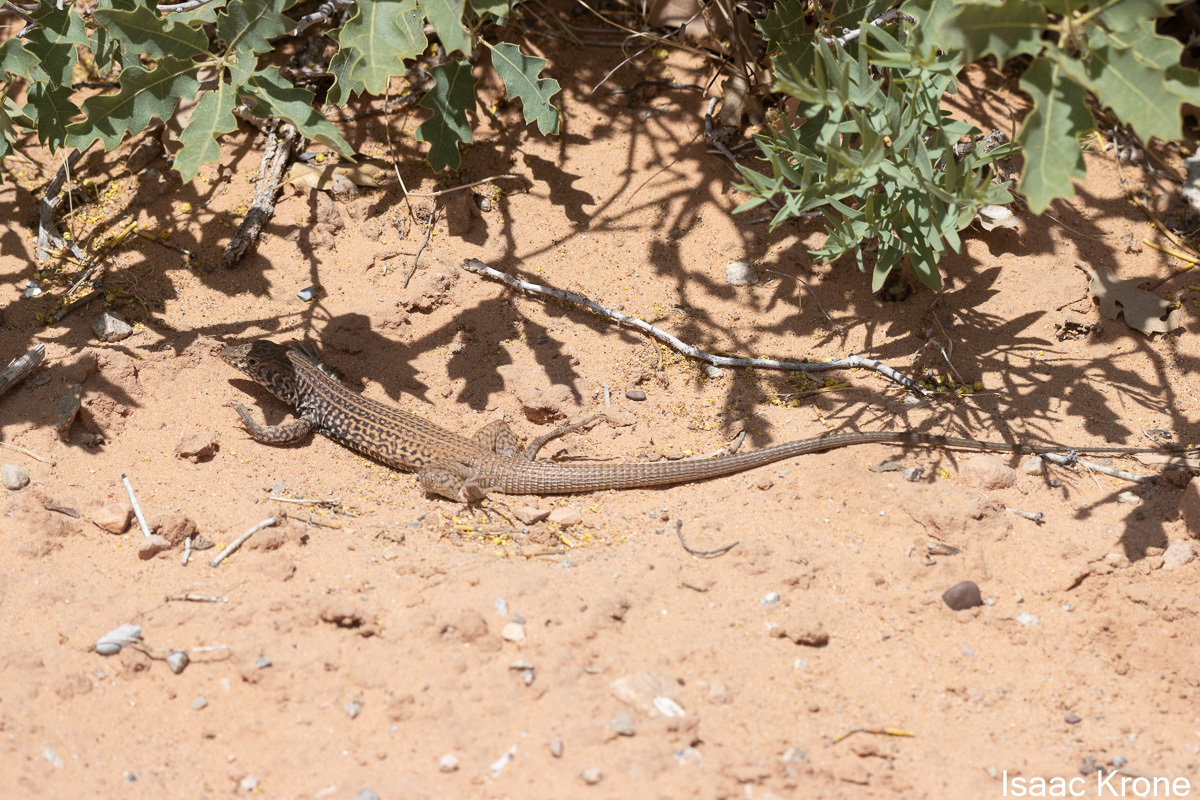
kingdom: Animalia
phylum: Chordata
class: Squamata
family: Teiidae
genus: Aspidoscelis
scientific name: Aspidoscelis tigris
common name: Tiger whiptail
